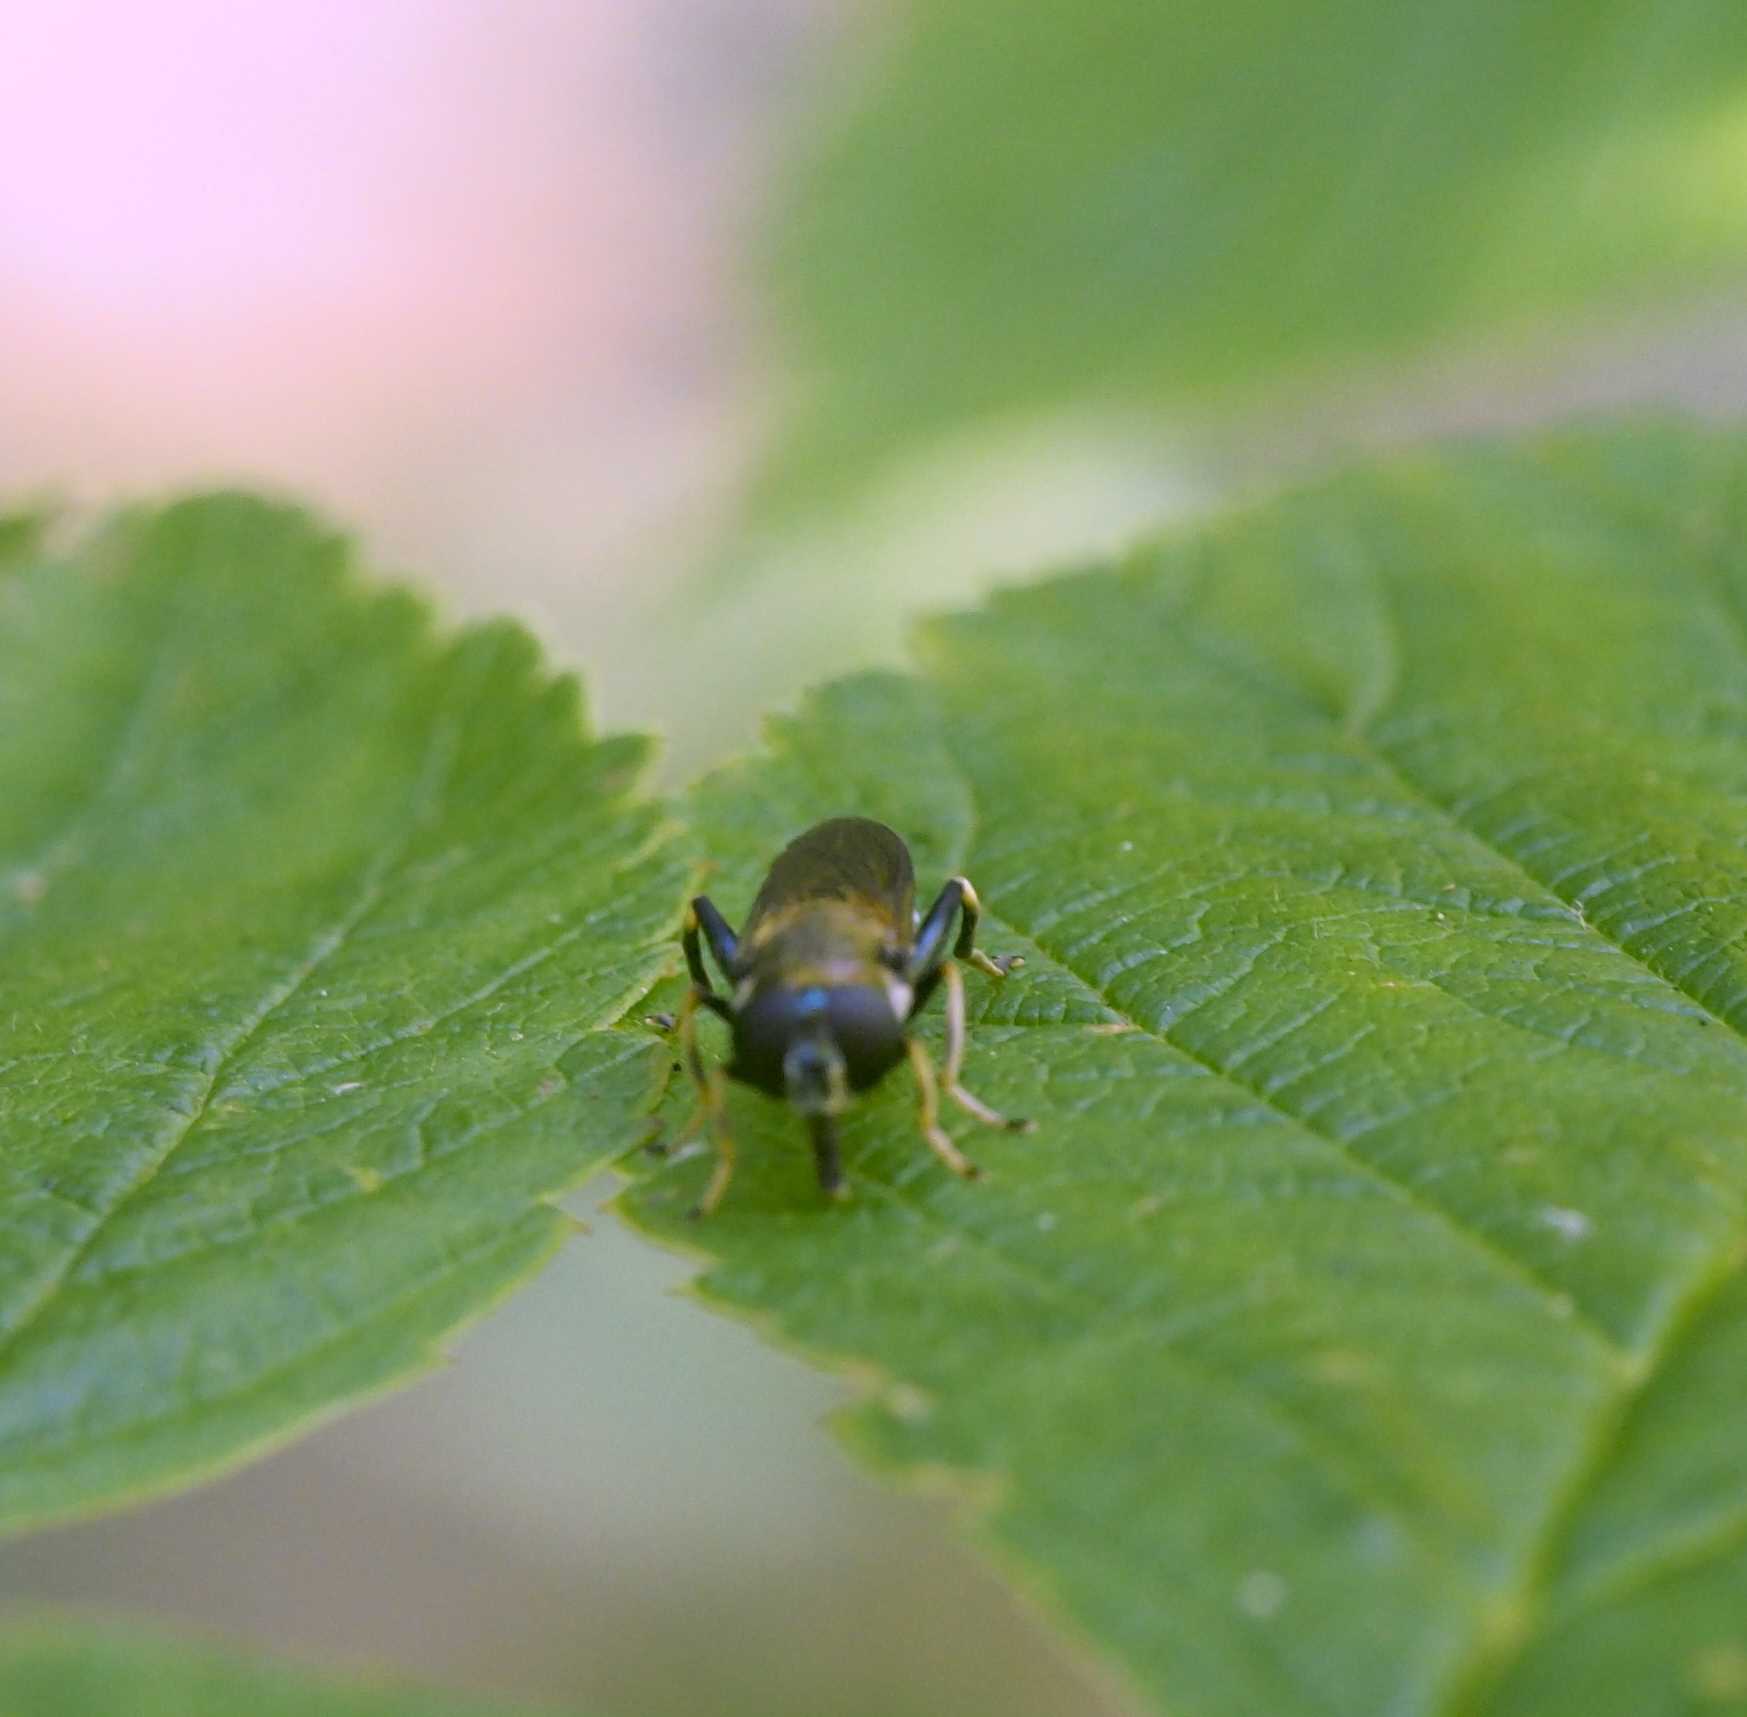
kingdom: Animalia
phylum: Arthropoda
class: Insecta
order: Diptera
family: Syrphidae
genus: Xylota
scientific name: Xylota segnis
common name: Brown-toed forest fly
